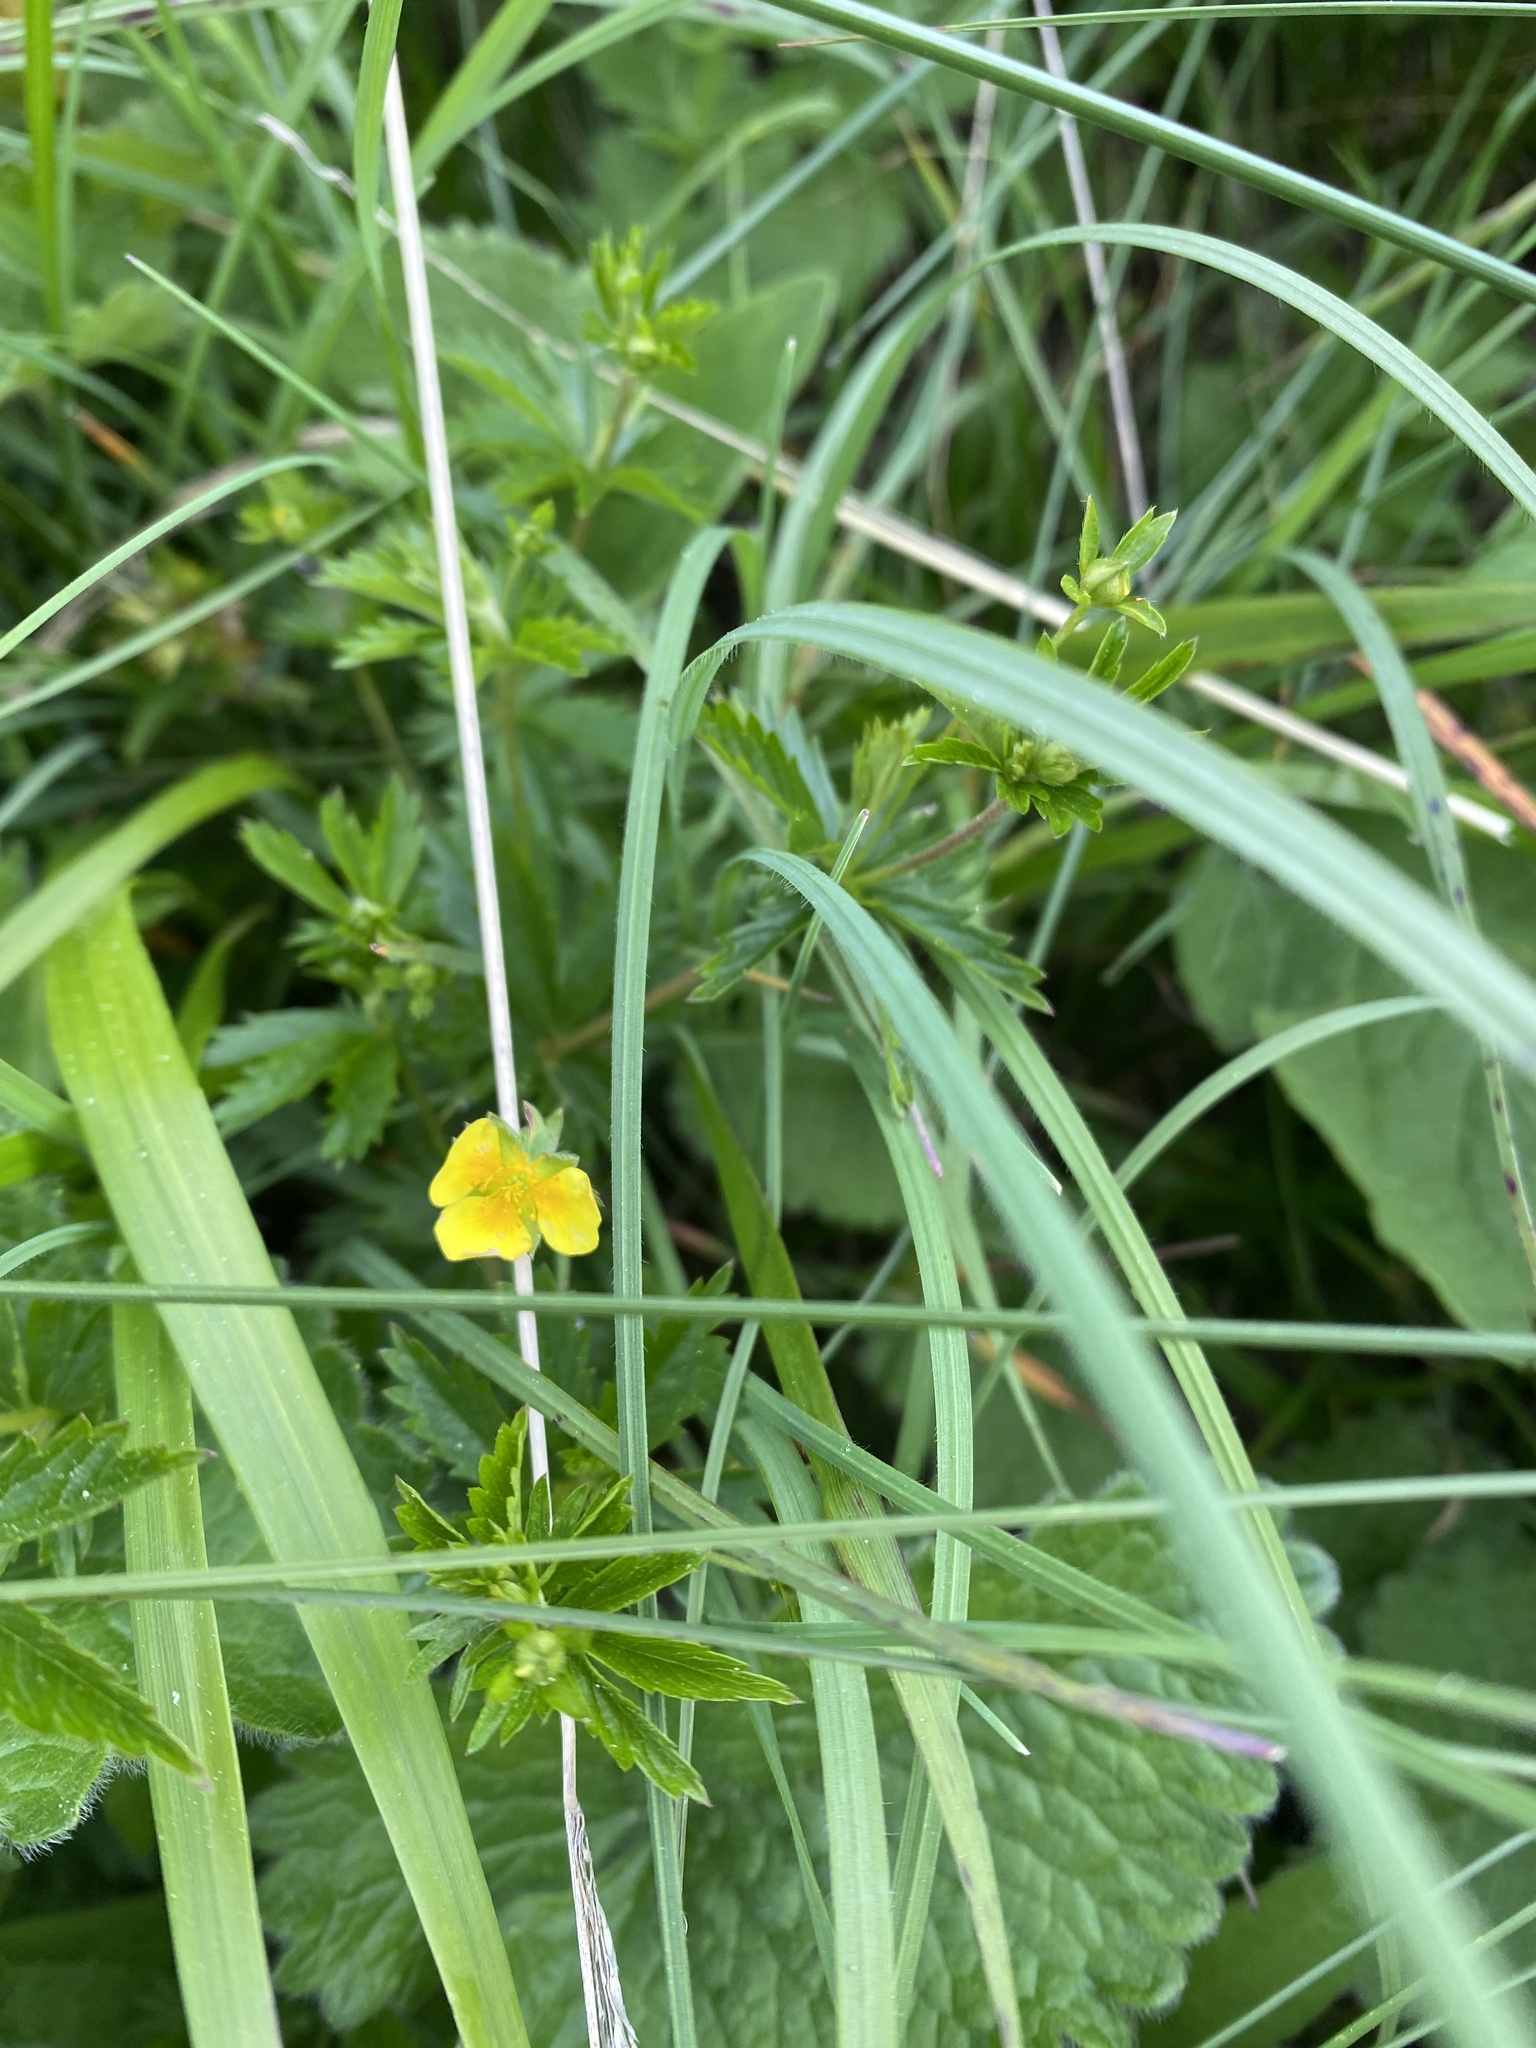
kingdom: Plantae
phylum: Tracheophyta
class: Magnoliopsida
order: Rosales
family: Rosaceae
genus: Potentilla
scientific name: Potentilla erecta
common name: Tormentil
